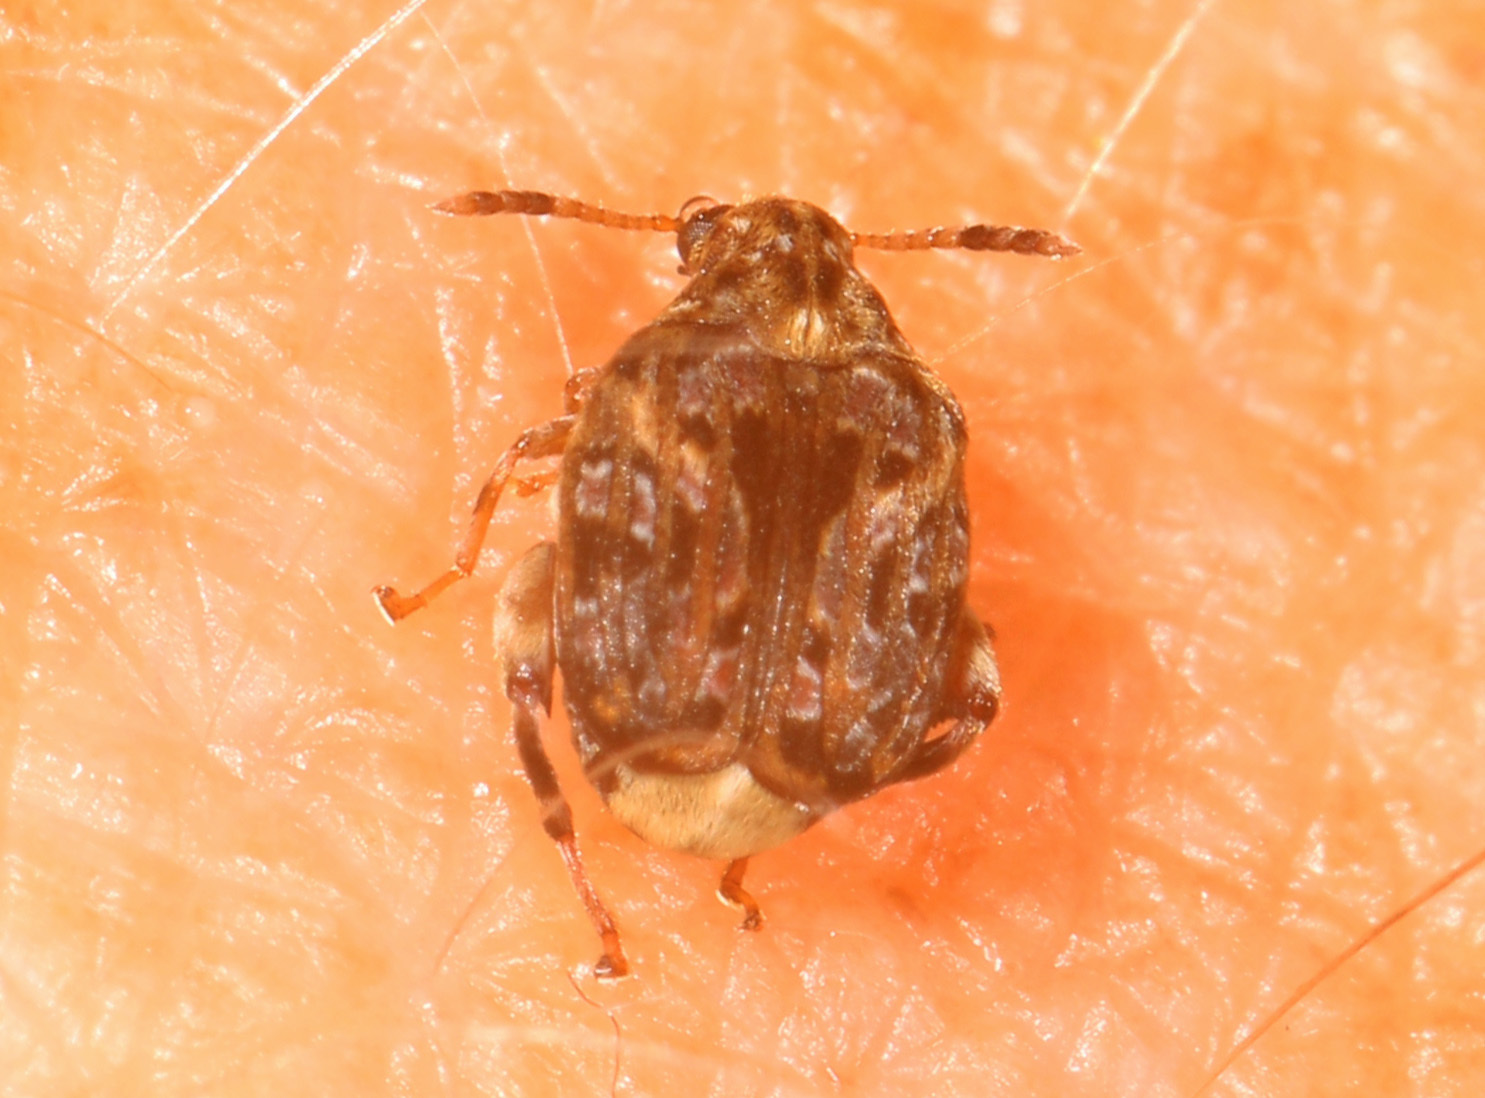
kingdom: Animalia
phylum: Arthropoda
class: Insecta
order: Coleoptera
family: Chrysomelidae
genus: Gibbobruchus
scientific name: Gibbobruchus mimus
